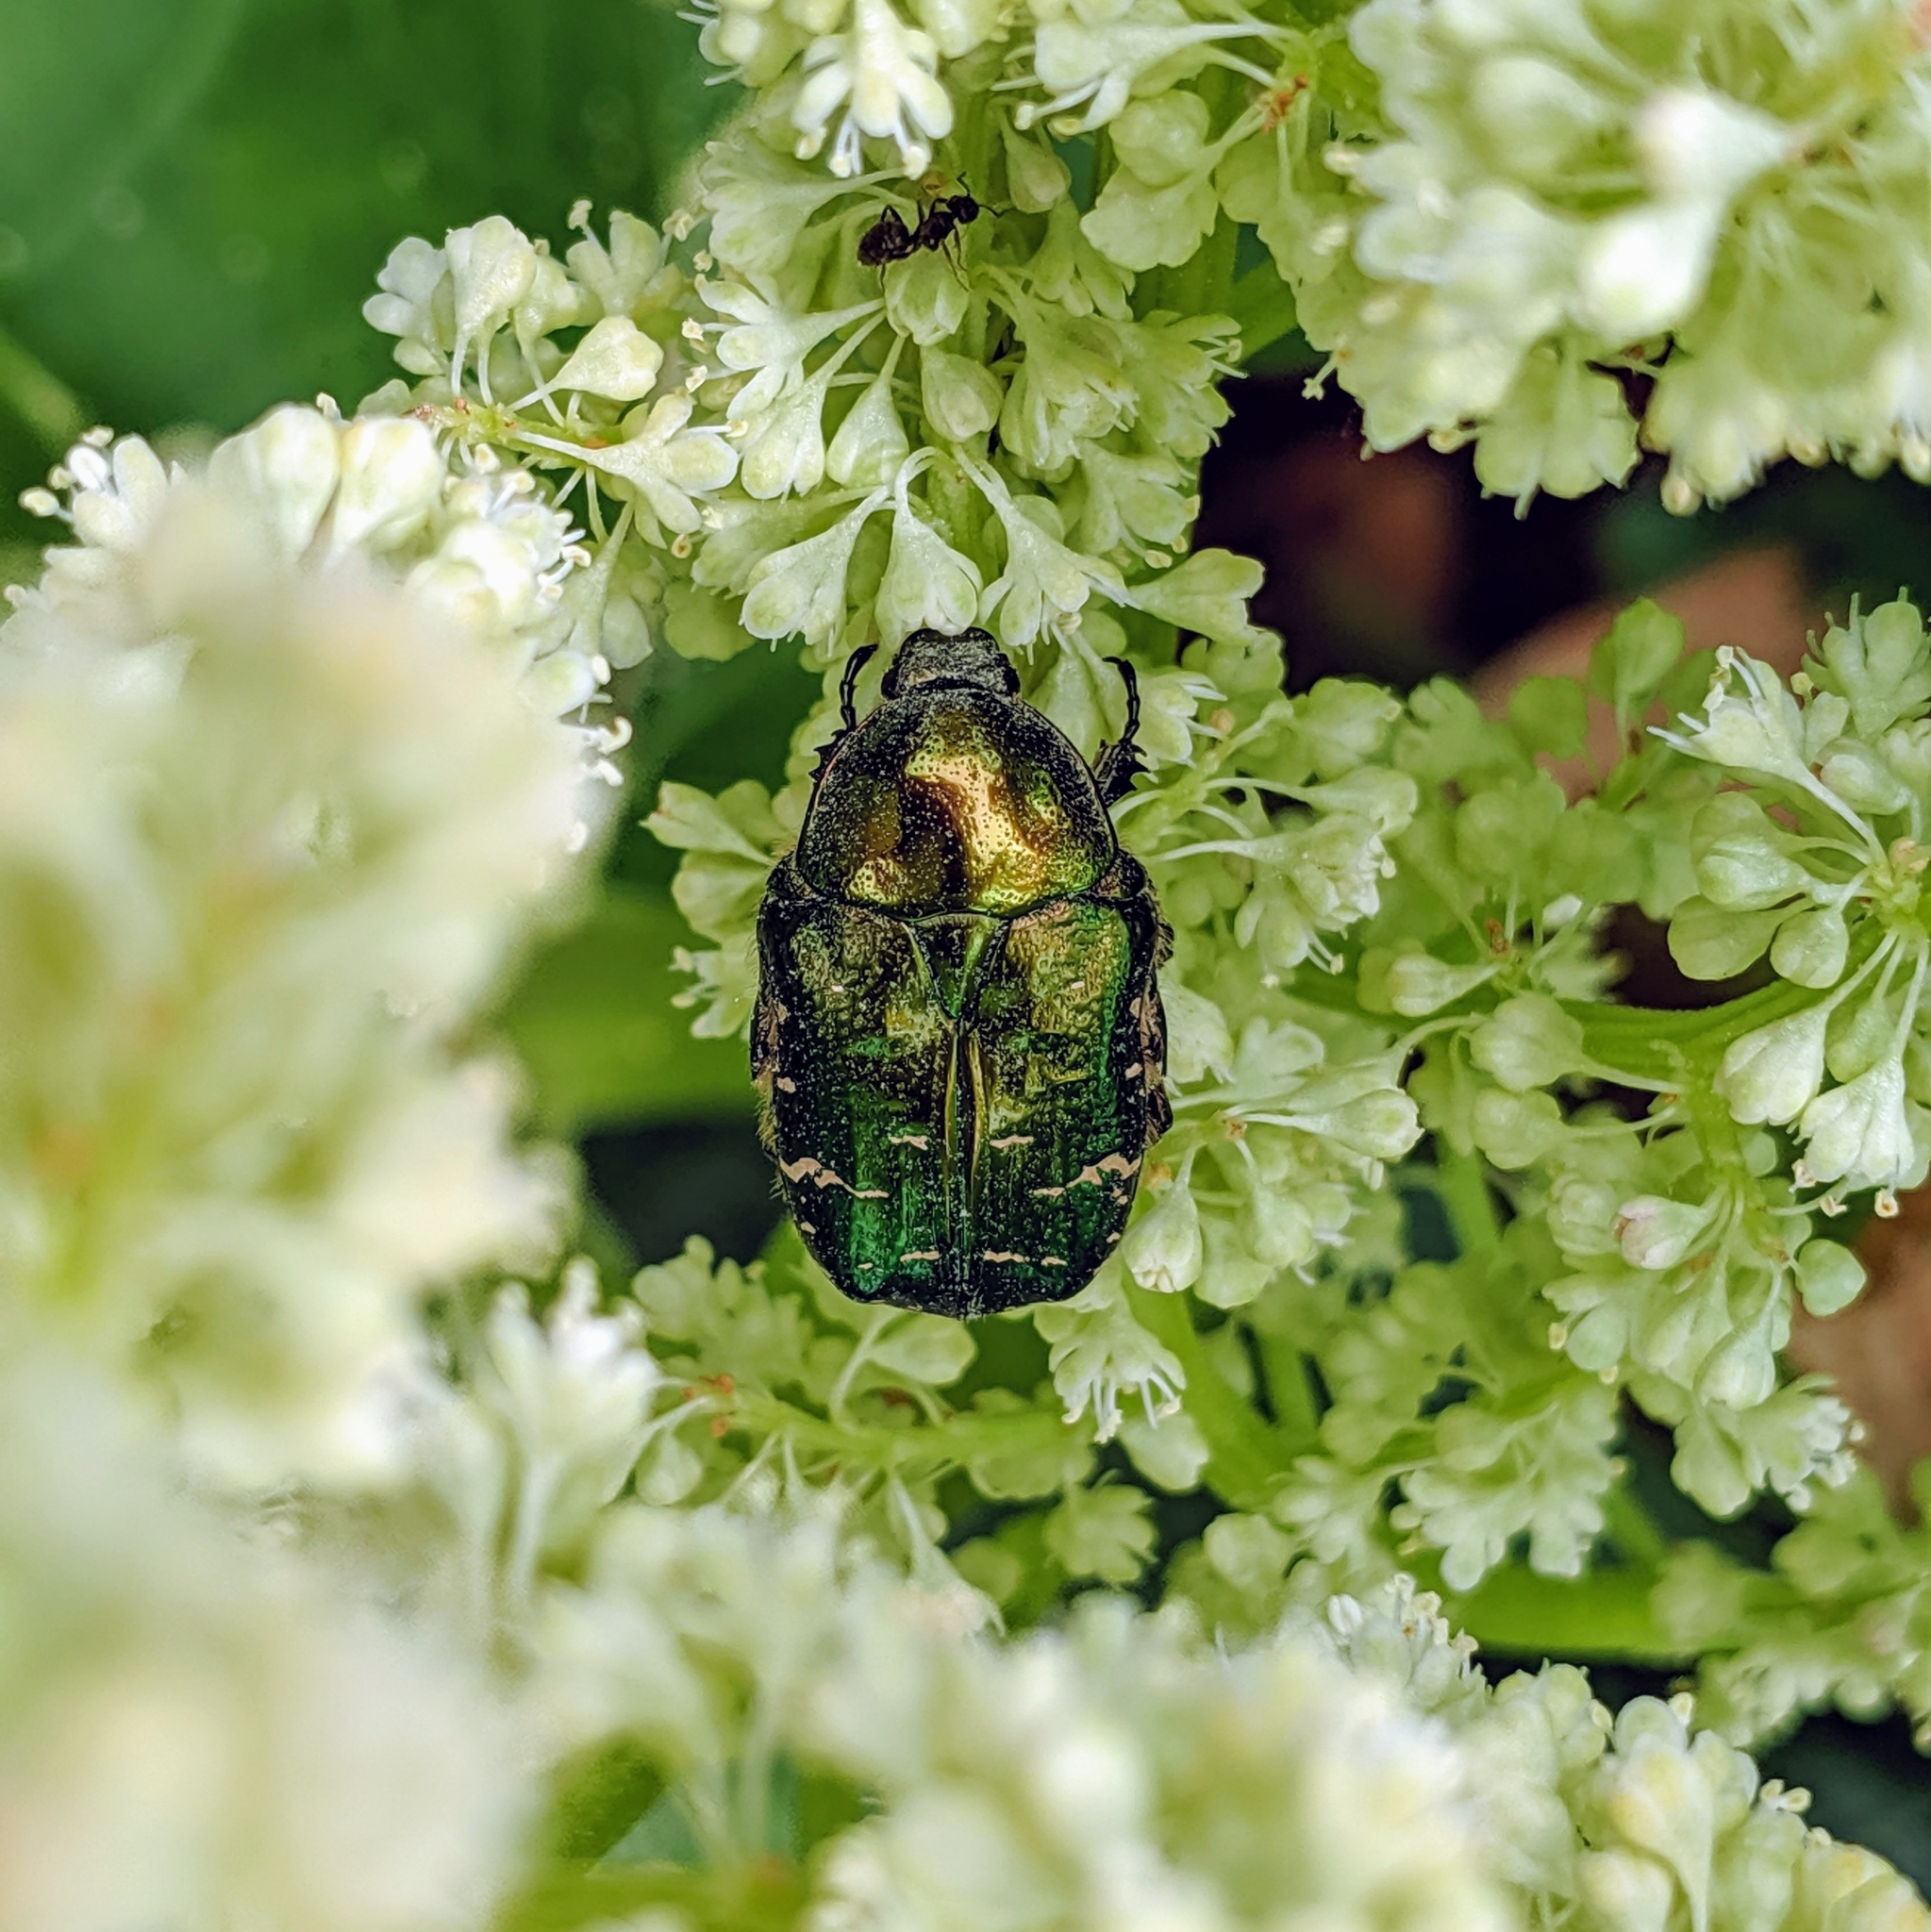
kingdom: Animalia
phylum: Arthropoda
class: Insecta
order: Coleoptera
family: Scarabaeidae
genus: Cetonia
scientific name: Cetonia aurata
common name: Rose chafer
